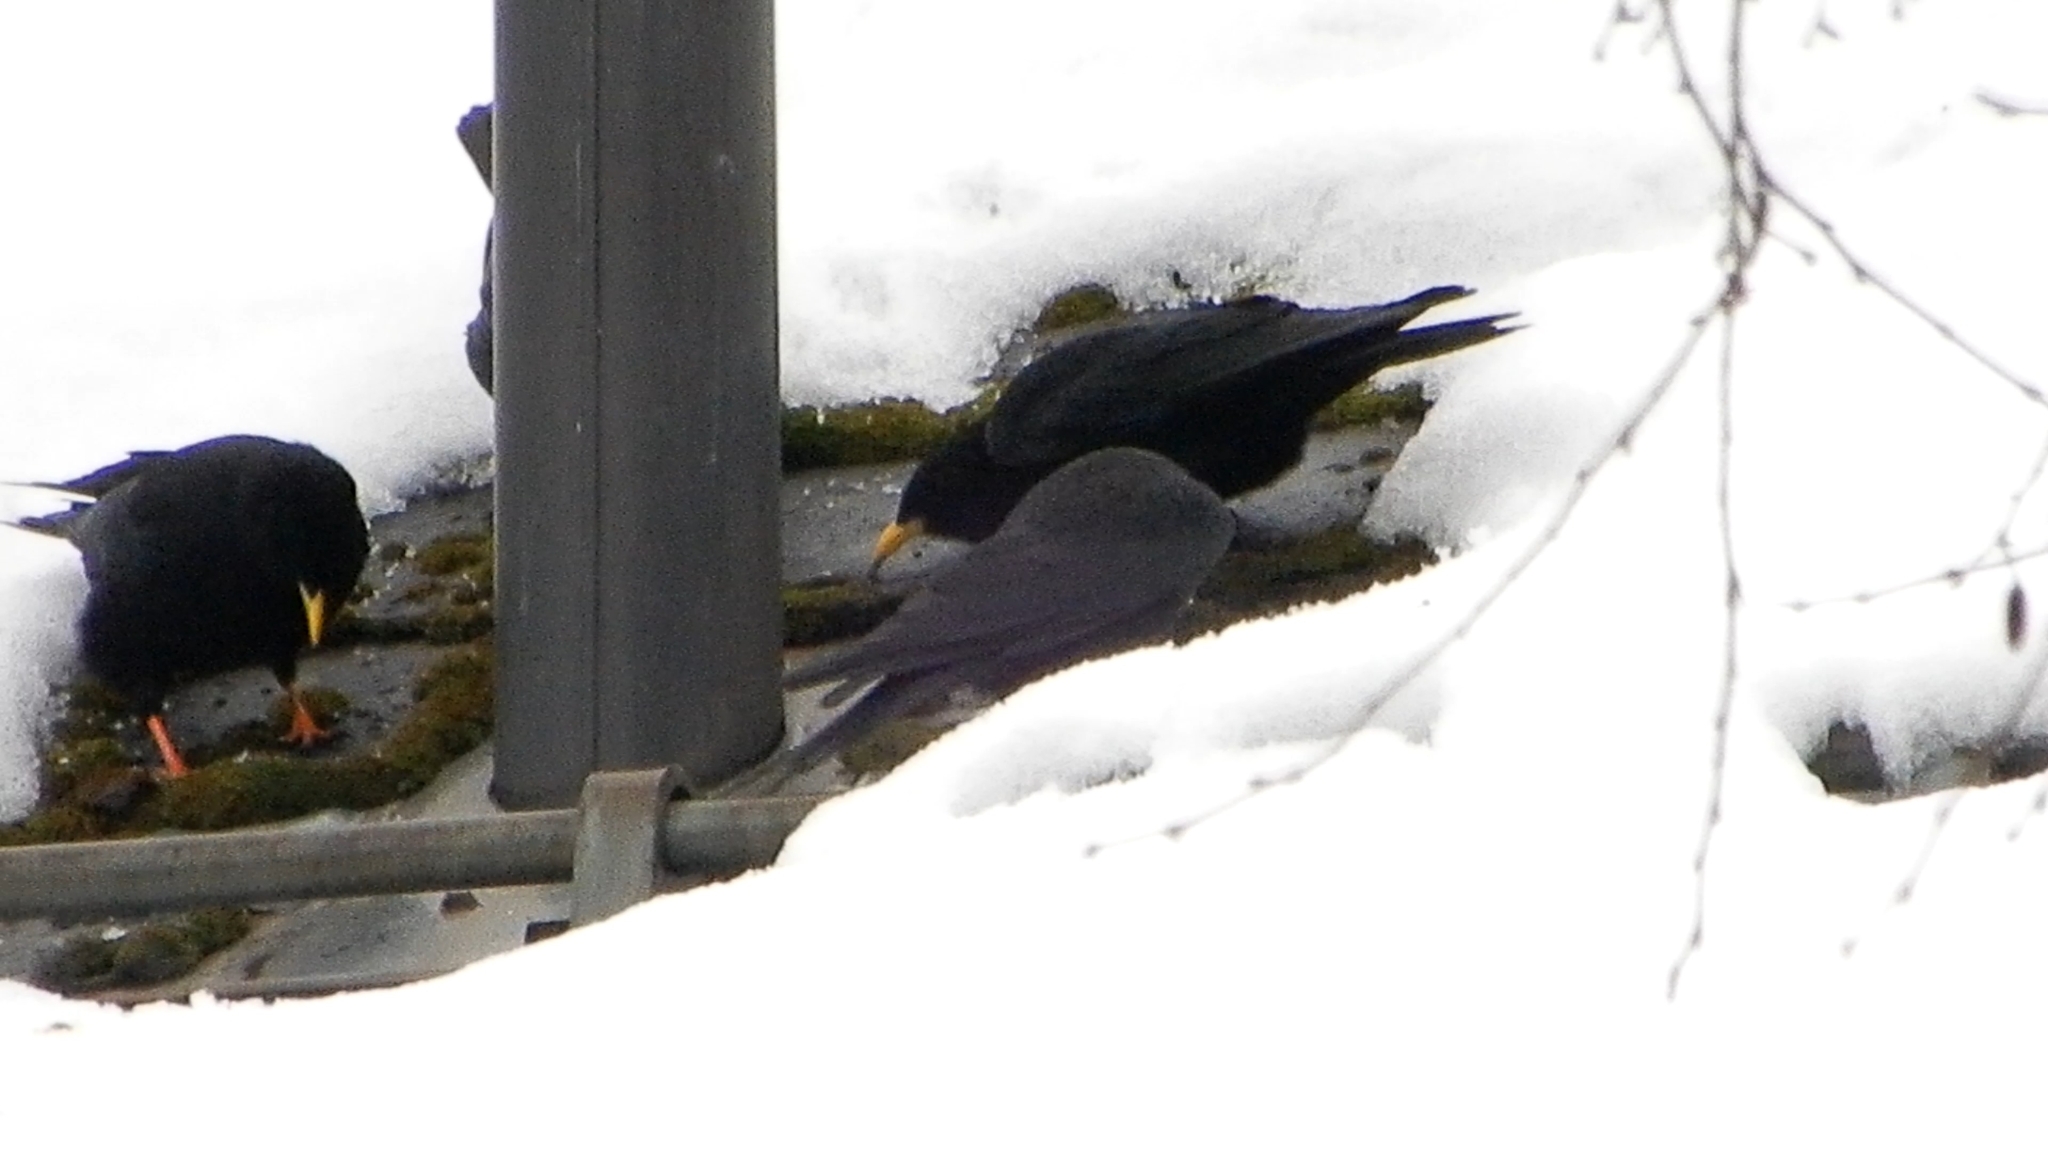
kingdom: Animalia
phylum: Chordata
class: Aves
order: Passeriformes
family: Corvidae
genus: Pyrrhocorax
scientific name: Pyrrhocorax graculus
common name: Alpine chough
